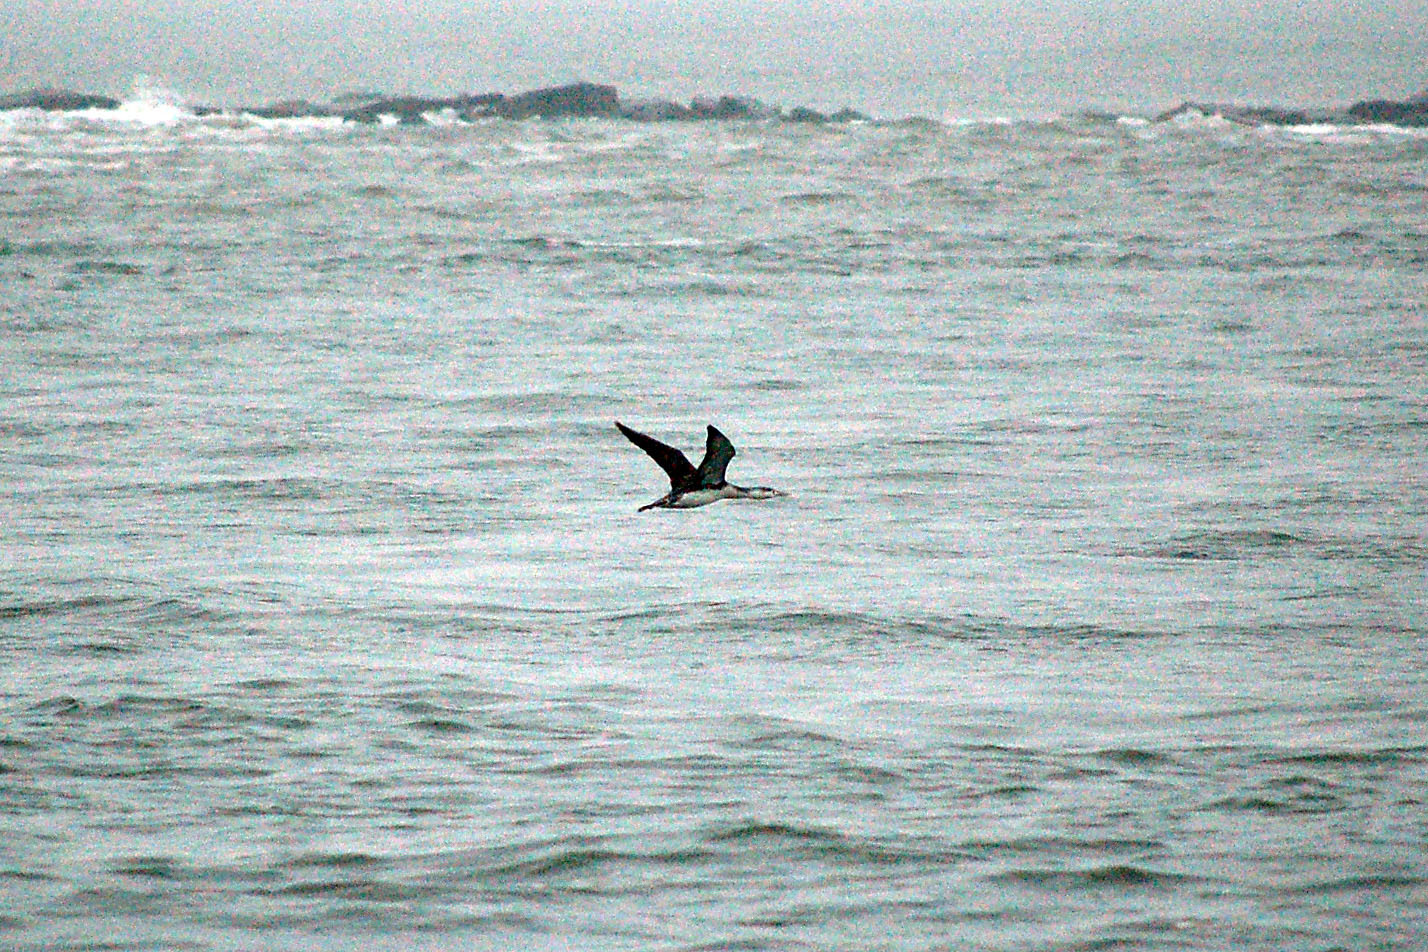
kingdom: Animalia
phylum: Chordata
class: Aves
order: Gaviiformes
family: Gaviidae
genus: Gavia
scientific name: Gavia stellata
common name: Red-throated loon
